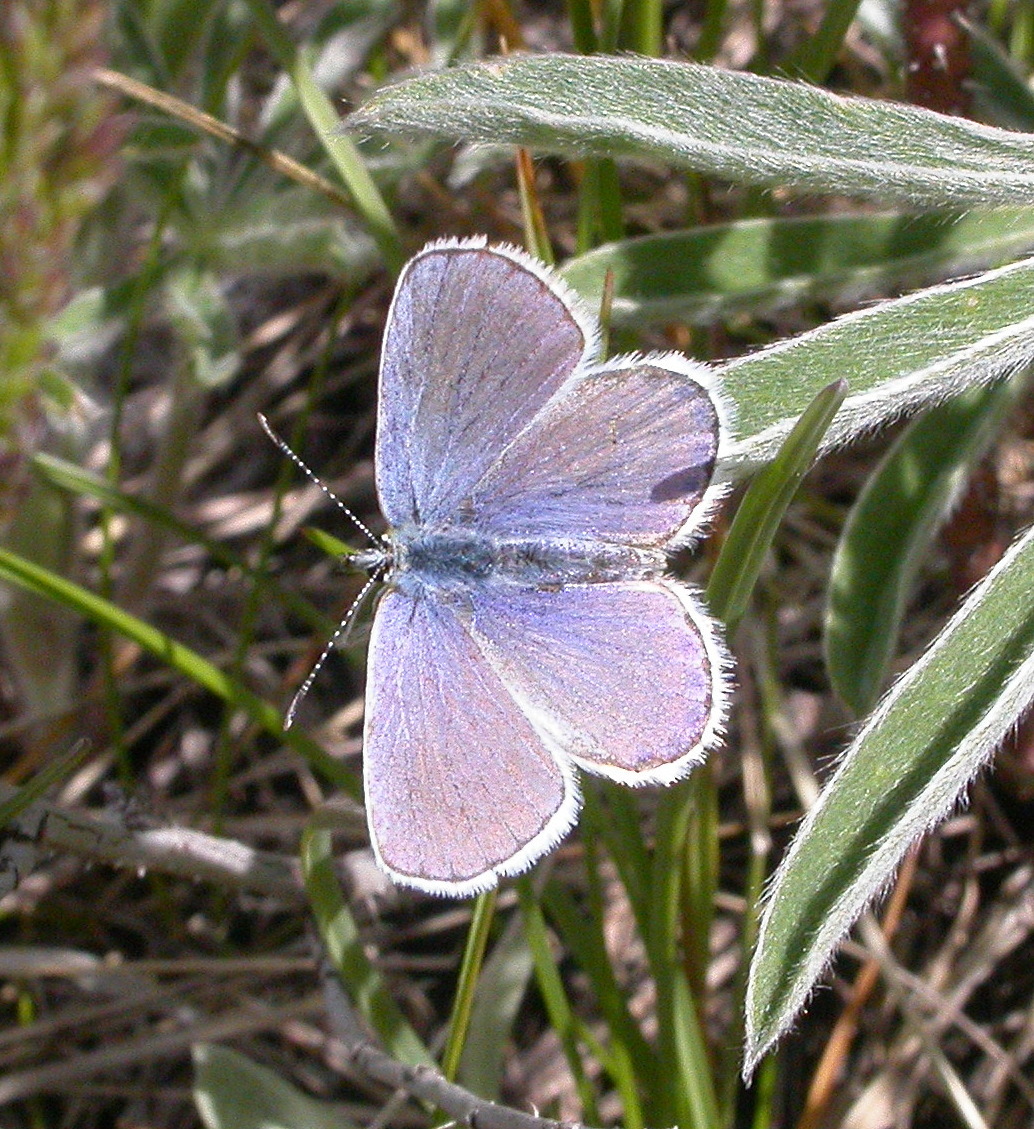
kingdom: Animalia
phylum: Arthropoda
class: Insecta
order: Lepidoptera
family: Lycaenidae
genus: Lycaeides
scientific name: Lycaeides melissa
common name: Melissa blue
